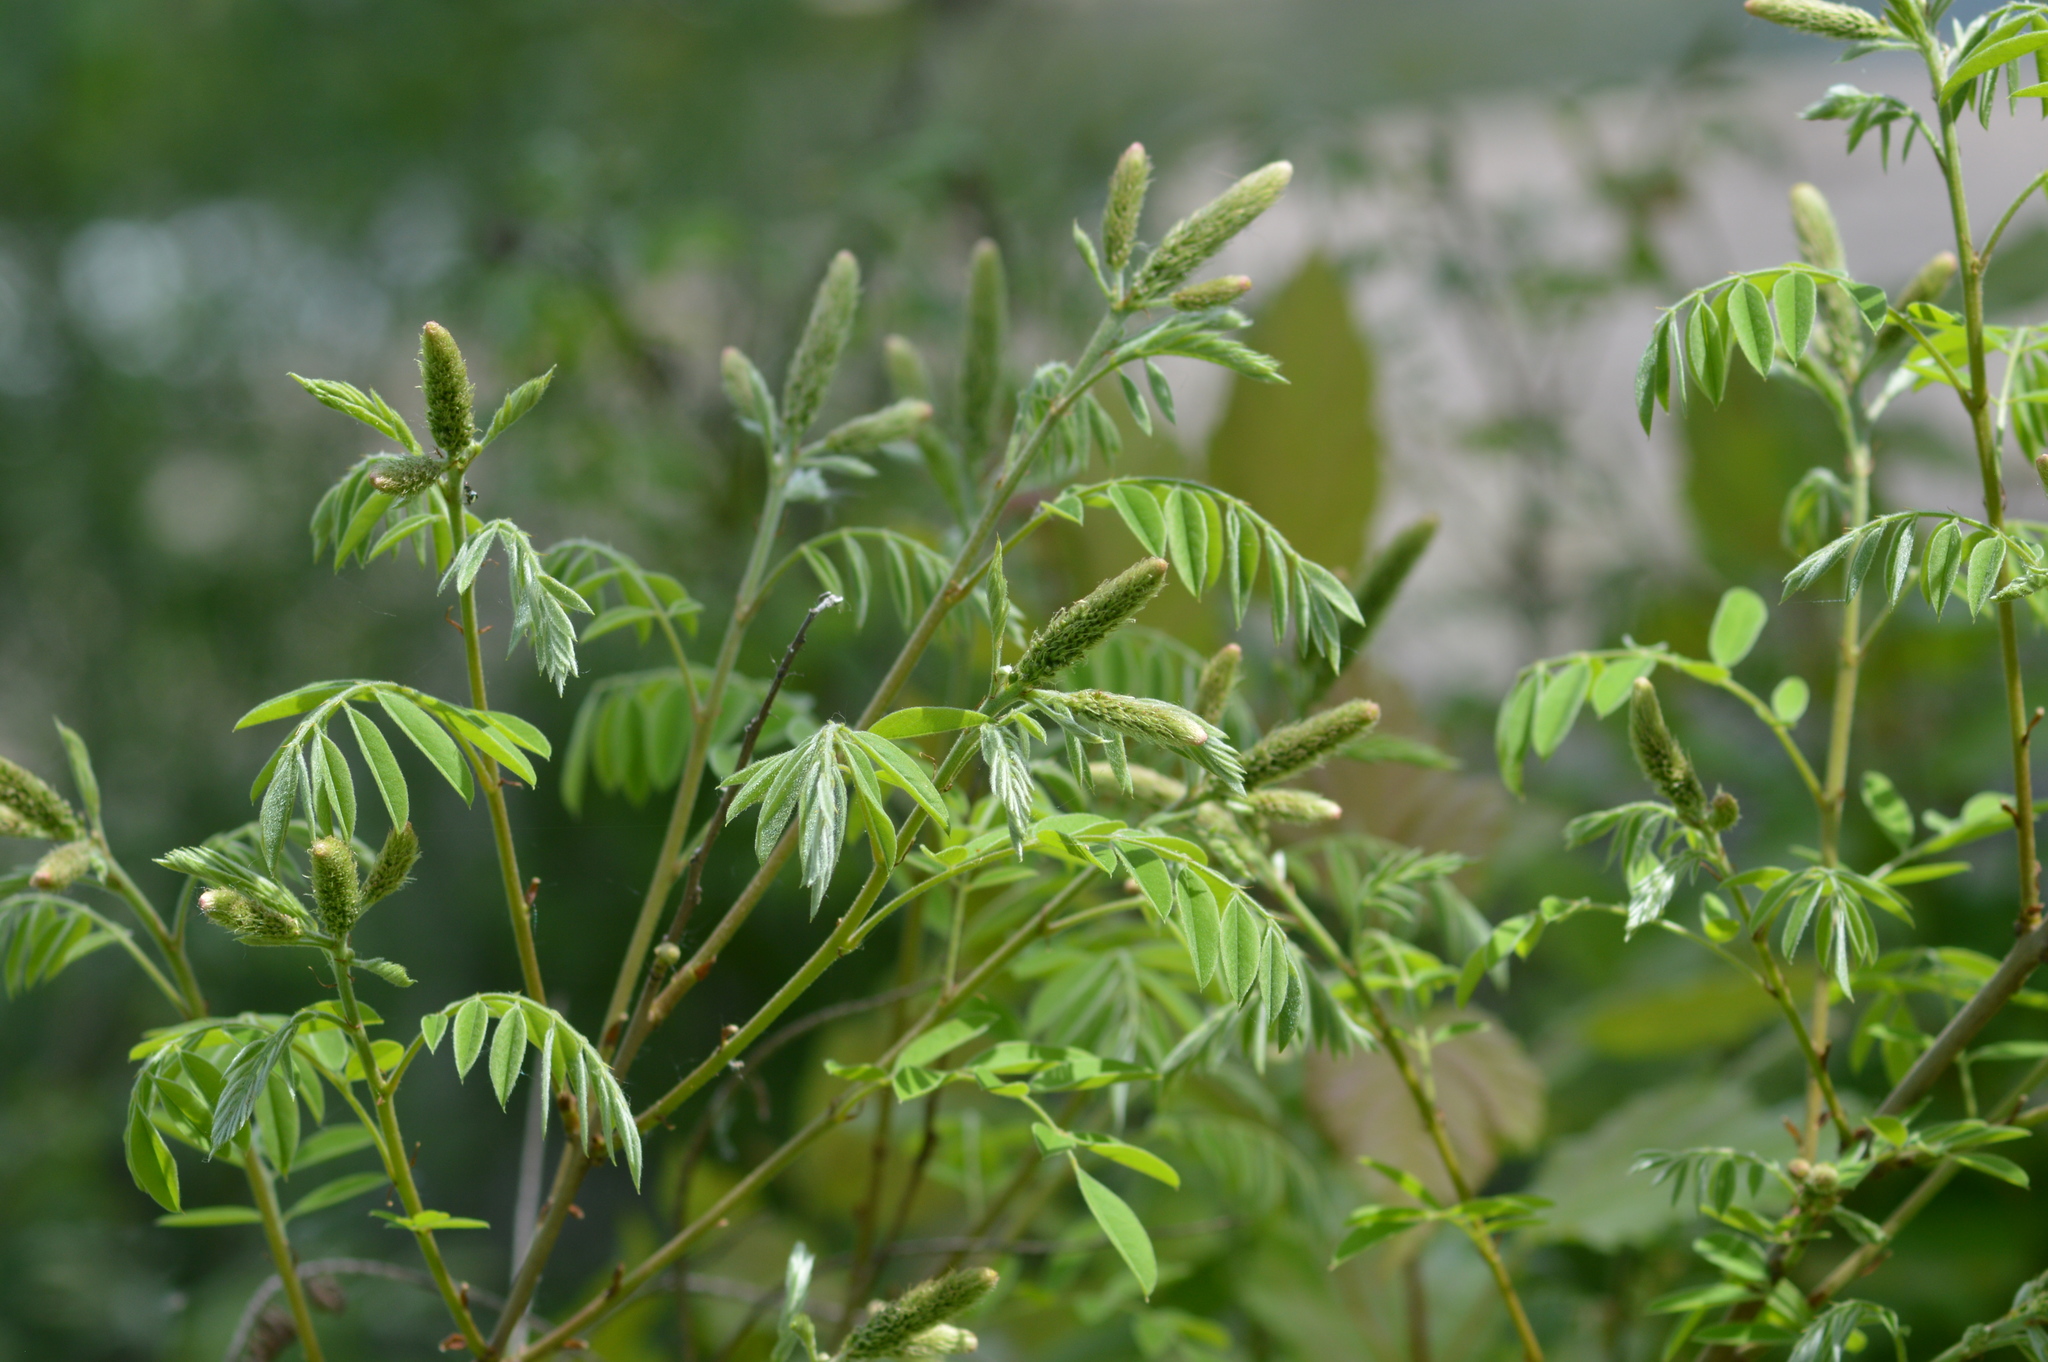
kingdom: Plantae
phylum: Tracheophyta
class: Magnoliopsida
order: Fabales
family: Fabaceae
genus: Amorpha
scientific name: Amorpha fruticosa
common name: False indigo
